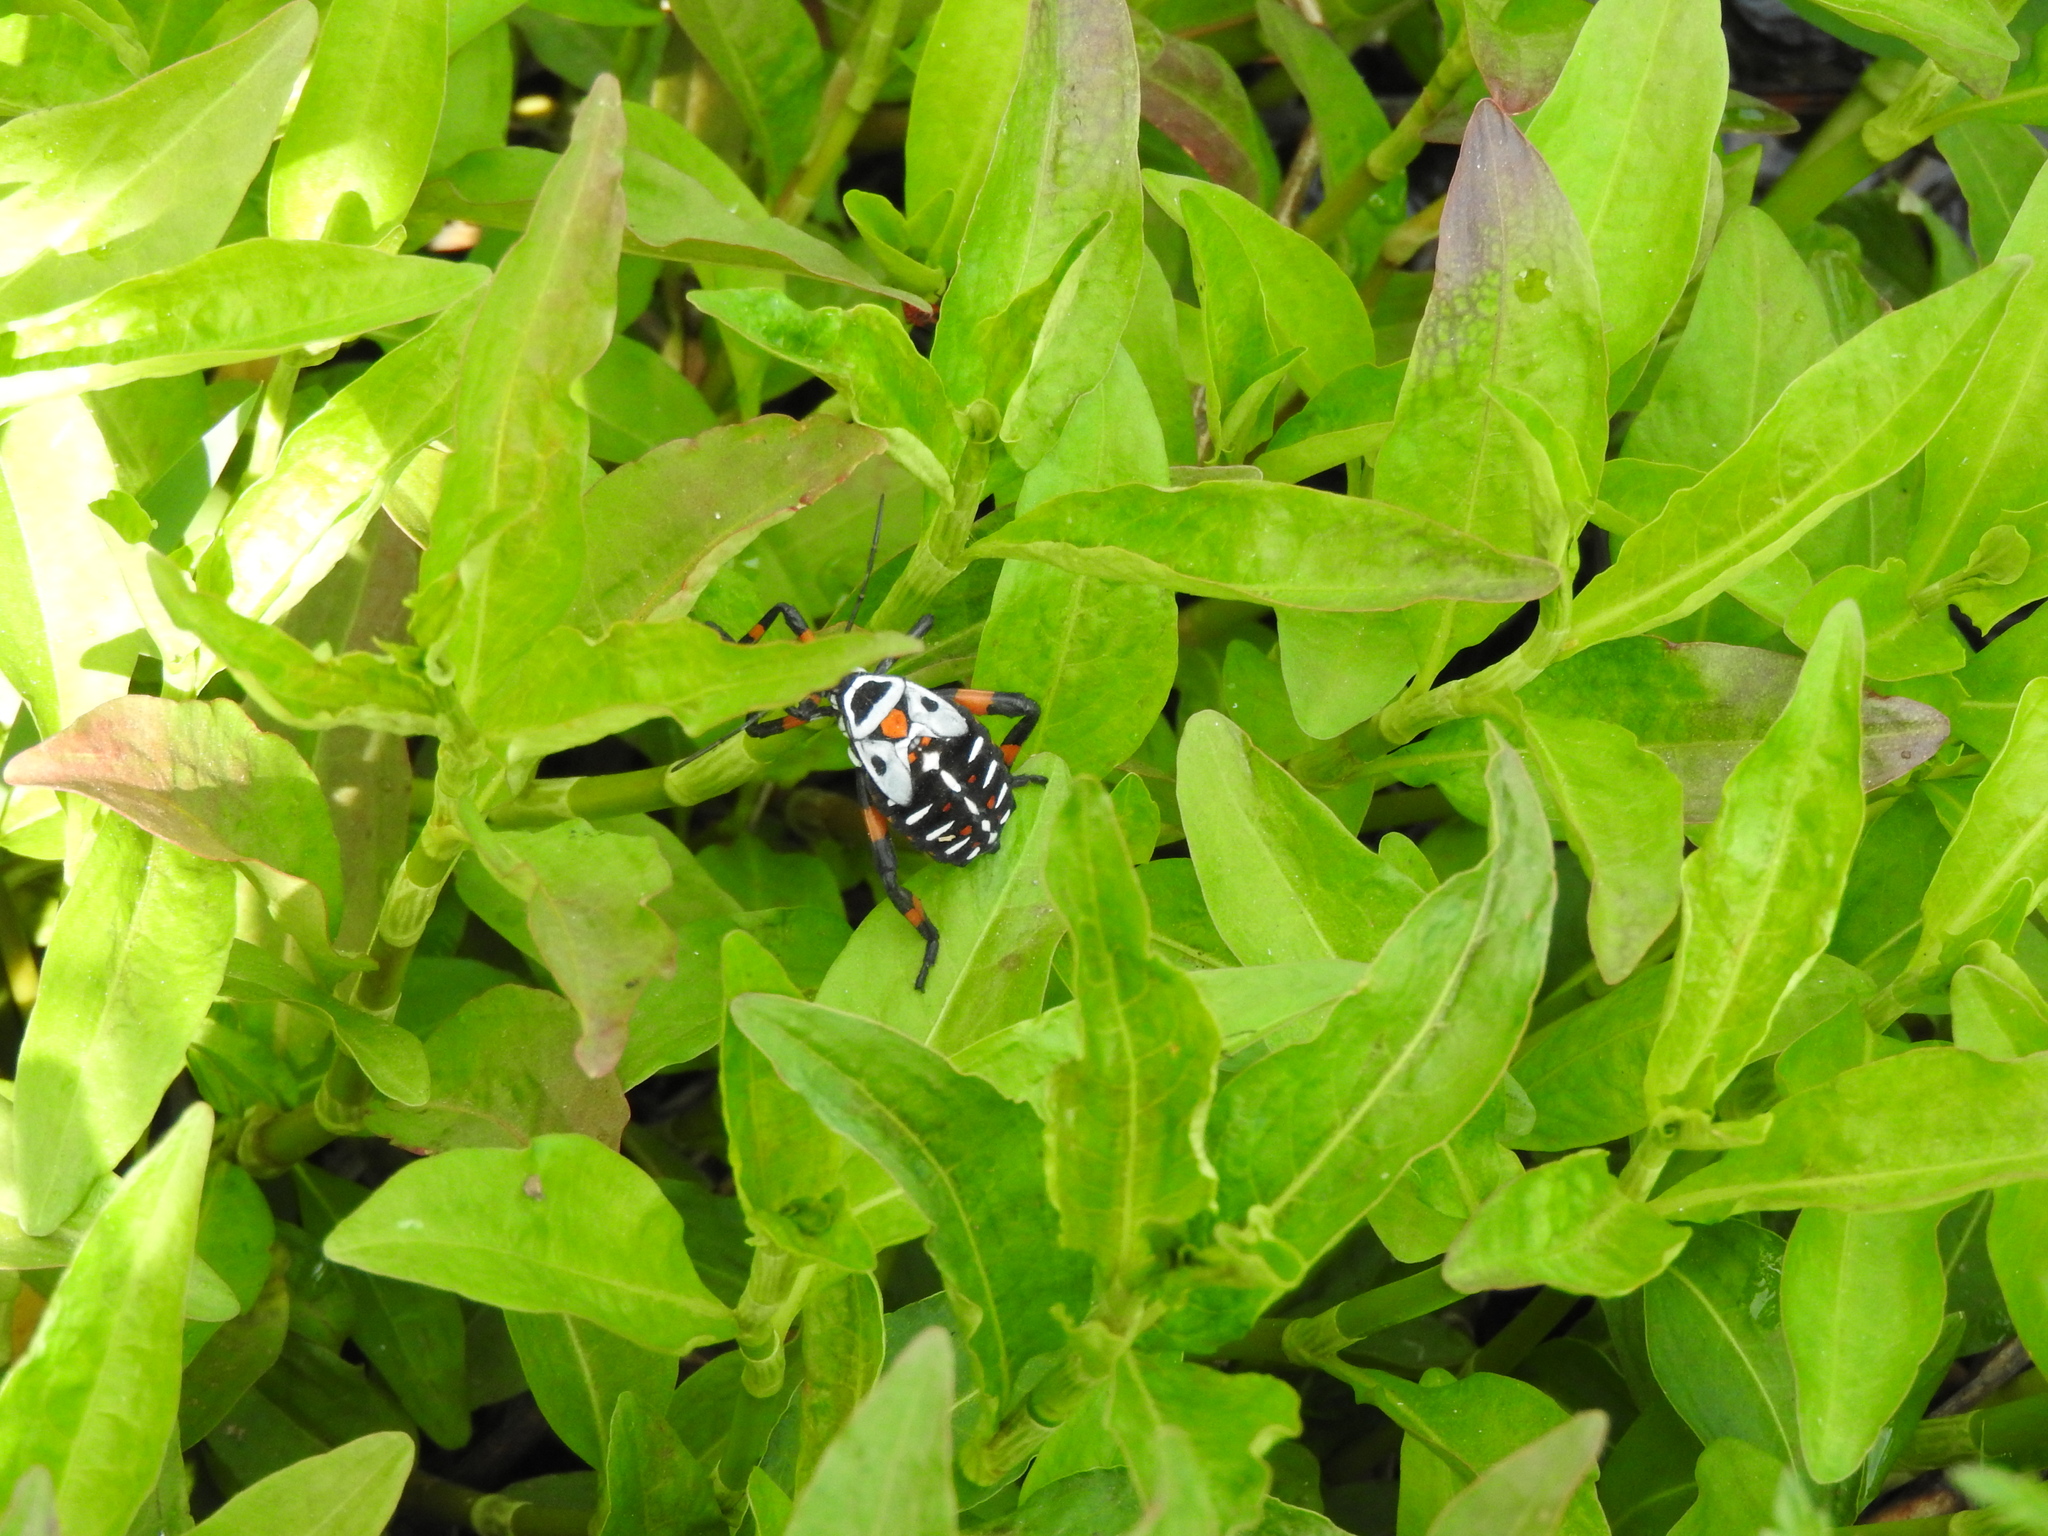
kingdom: Animalia
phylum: Arthropoda
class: Insecta
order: Hemiptera
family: Coreidae
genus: Thasus
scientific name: Thasus
